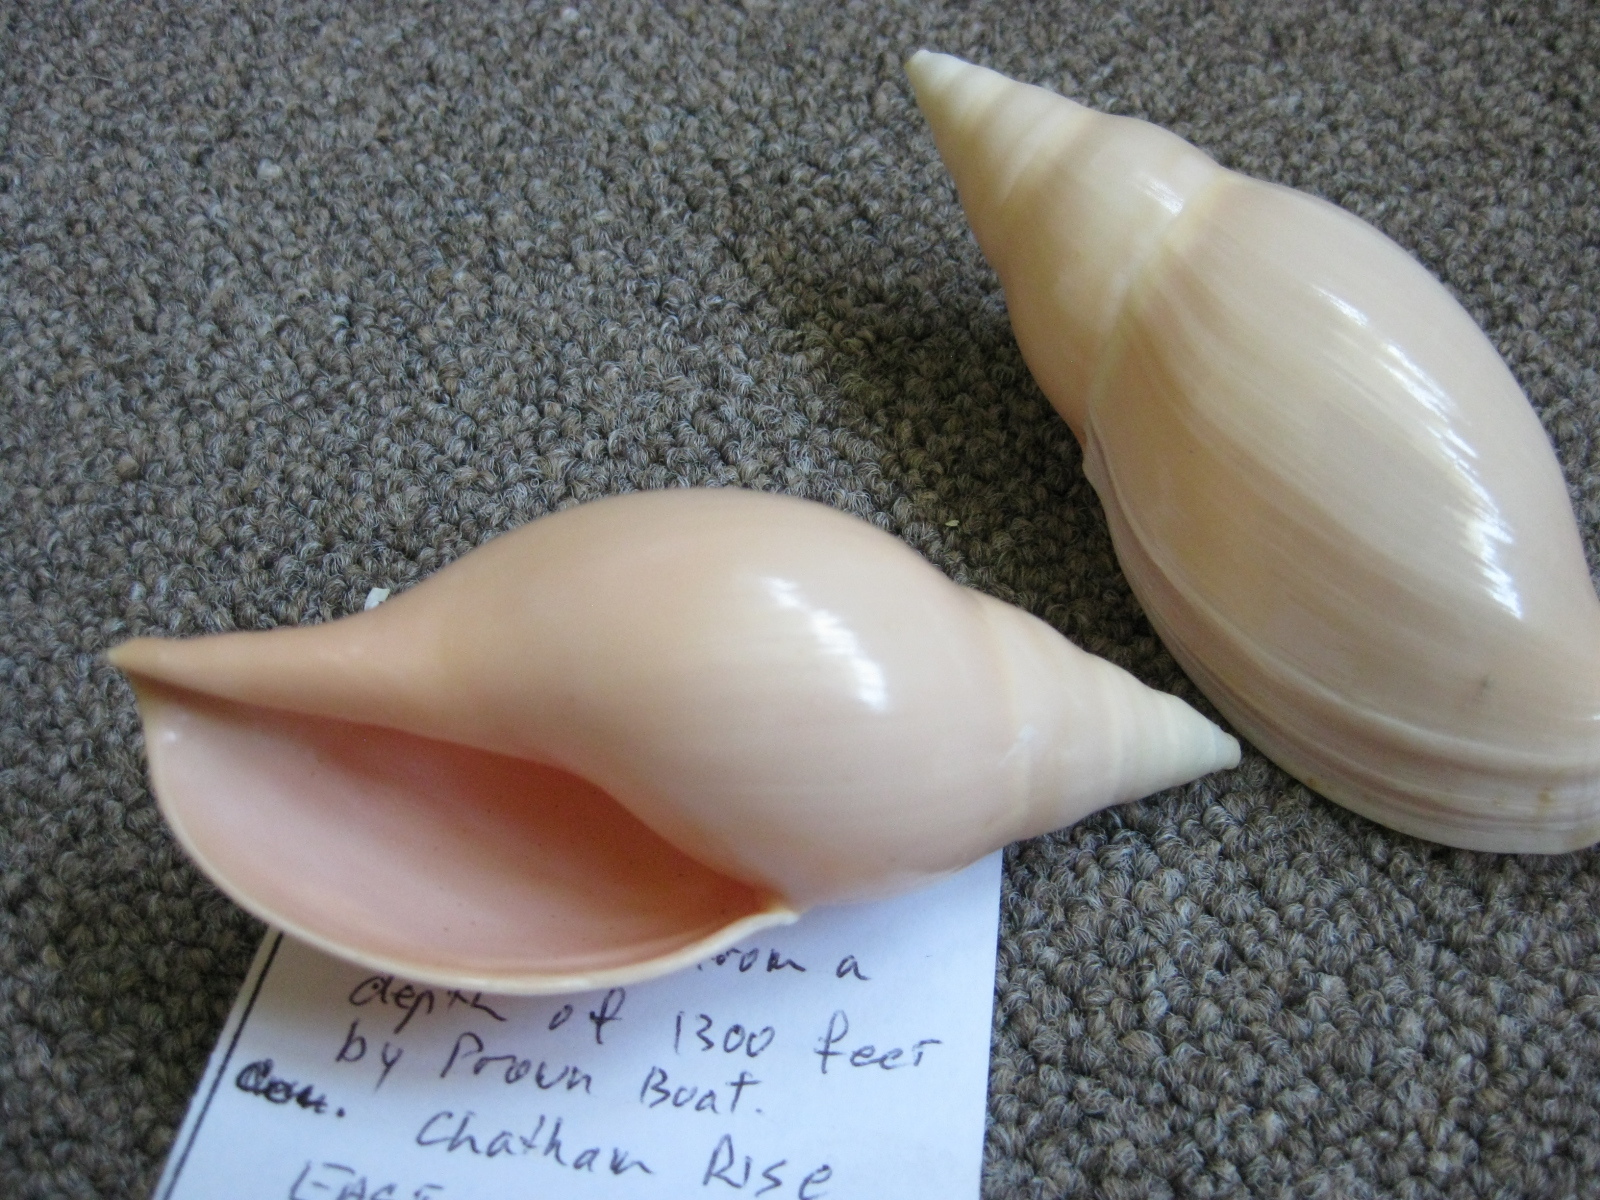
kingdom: Animalia
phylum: Mollusca
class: Gastropoda
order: Neogastropoda
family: Volutidae
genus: Provocator
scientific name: Provocator mirabilis
